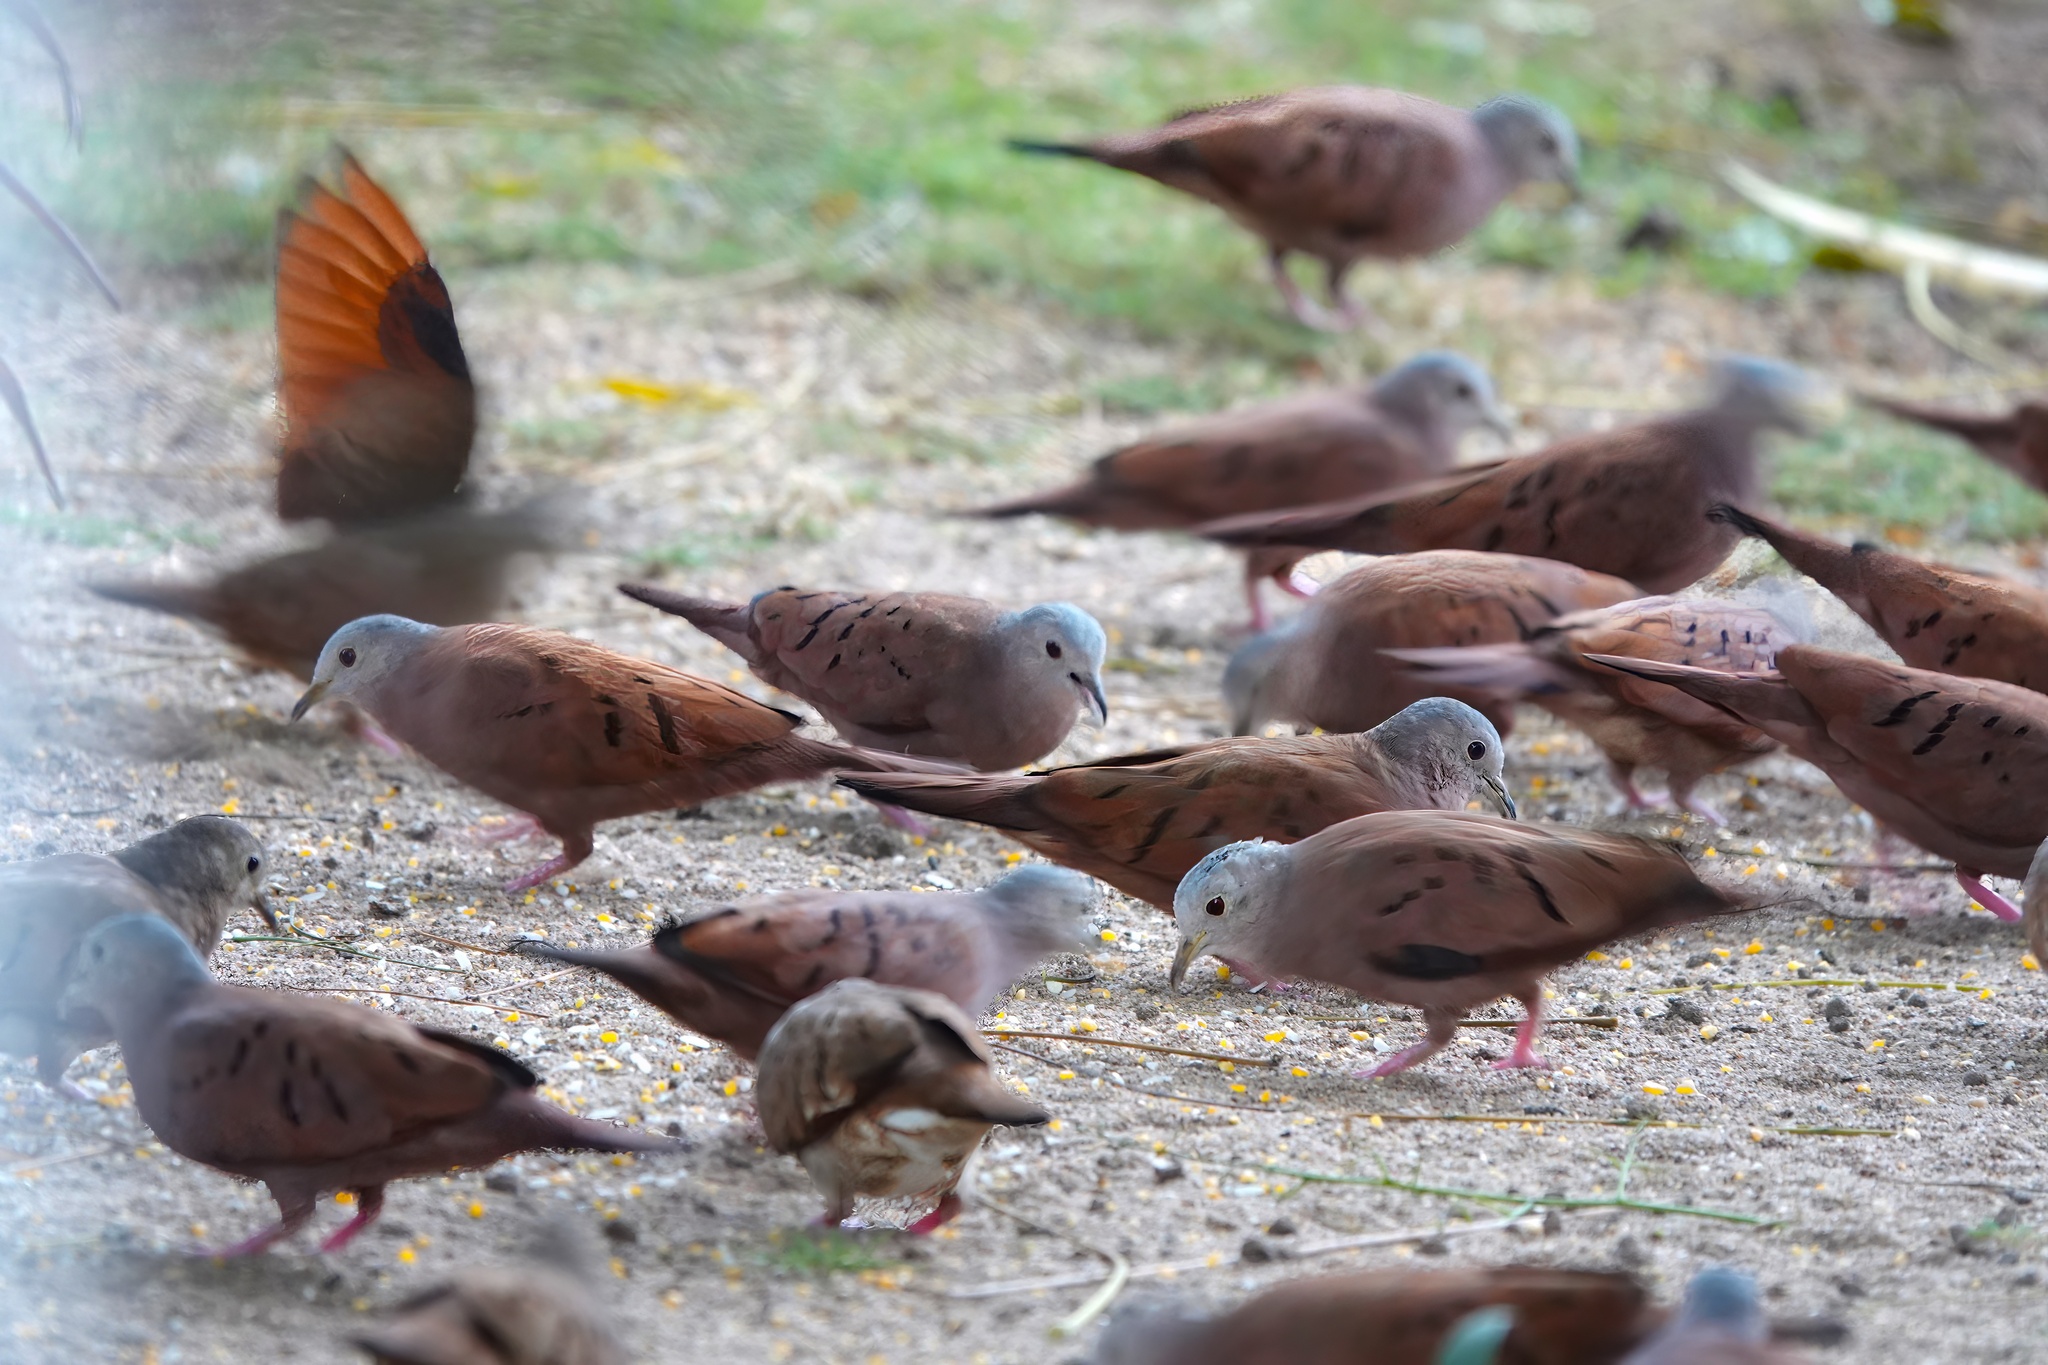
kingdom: Animalia
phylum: Chordata
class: Aves
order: Columbiformes
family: Columbidae
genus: Columbina
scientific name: Columbina talpacoti
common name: Ruddy ground dove
